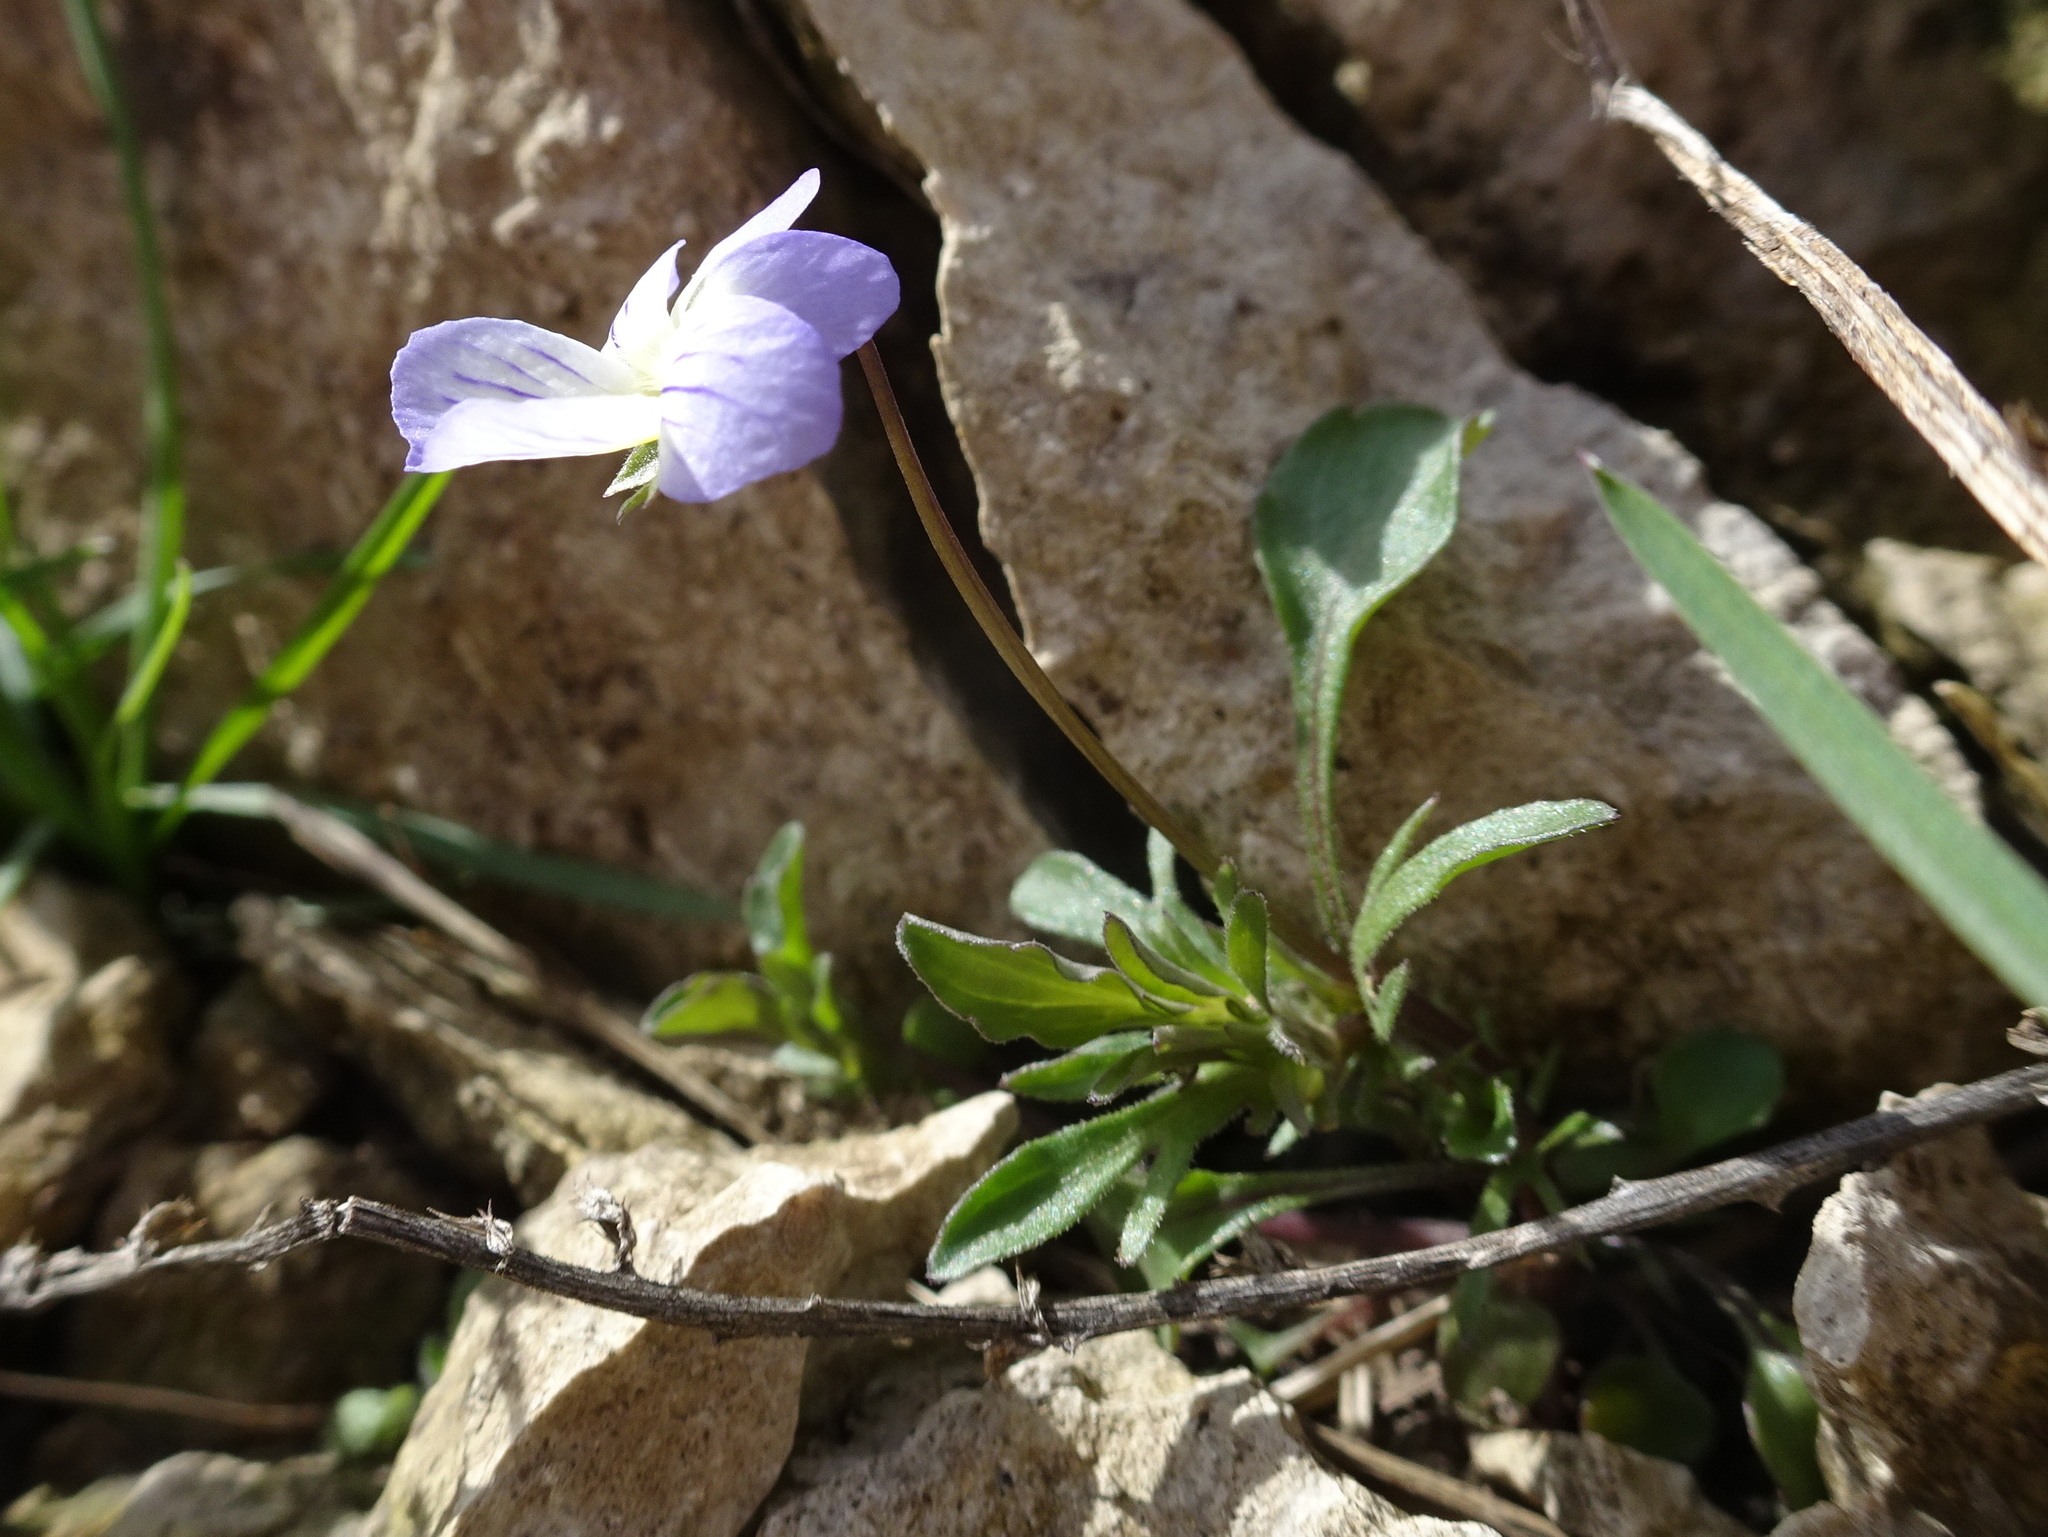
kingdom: Plantae
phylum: Tracheophyta
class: Magnoliopsida
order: Malpighiales
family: Violaceae
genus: Viola
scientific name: Viola rafinesquei
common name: American field pansy
